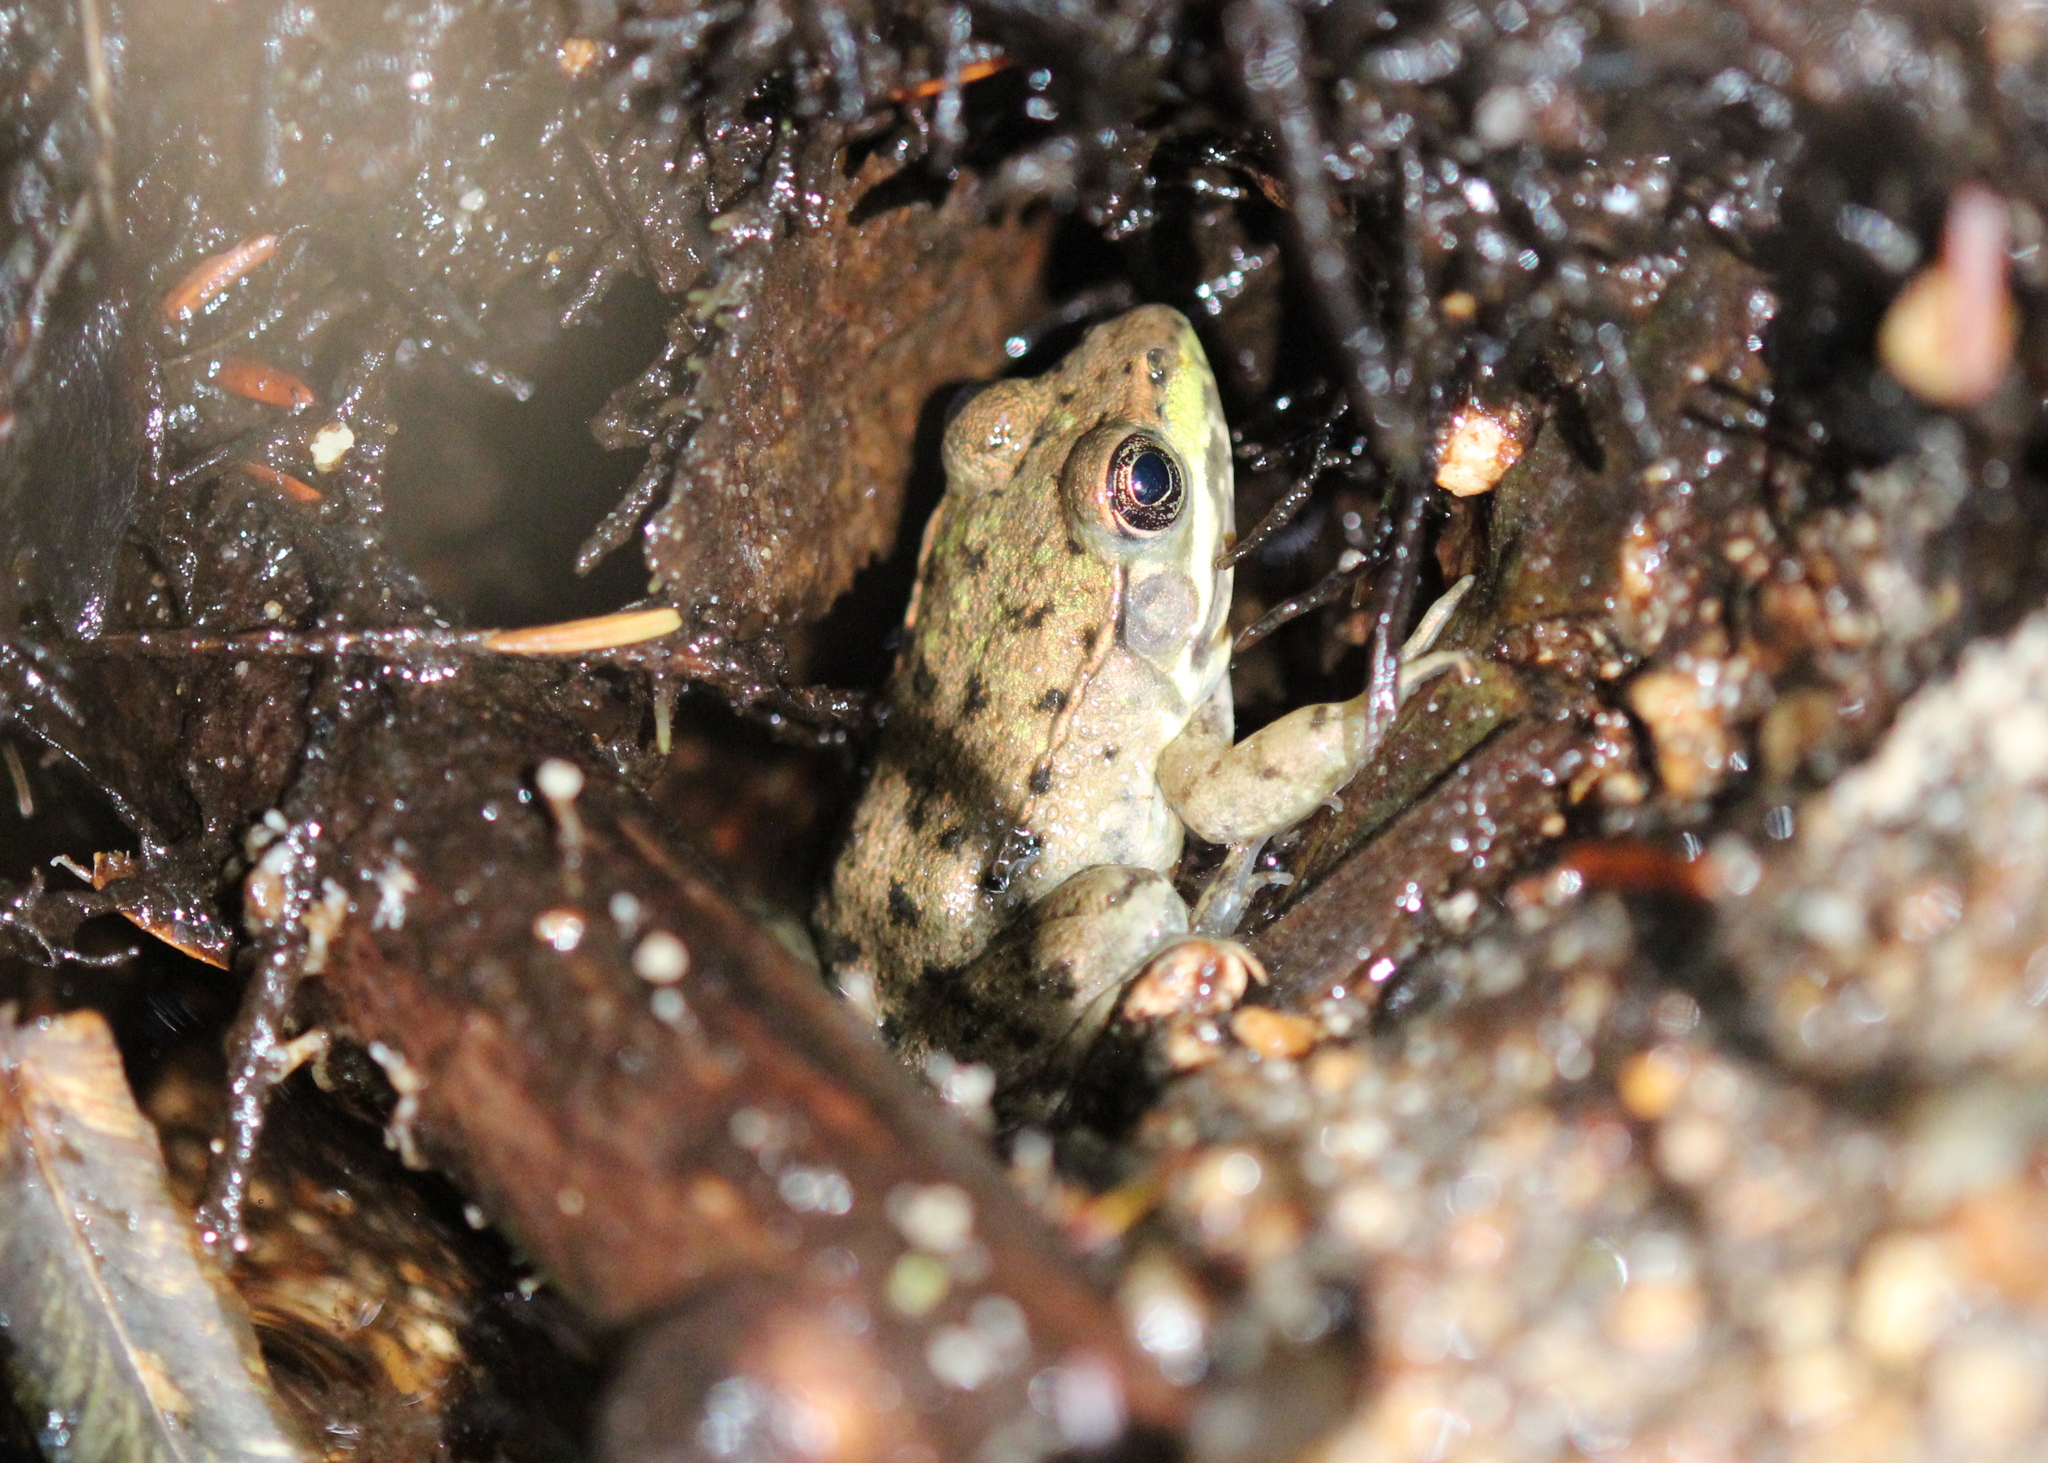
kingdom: Animalia
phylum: Chordata
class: Amphibia
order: Anura
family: Ranidae
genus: Lithobates
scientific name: Lithobates clamitans
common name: Green frog
